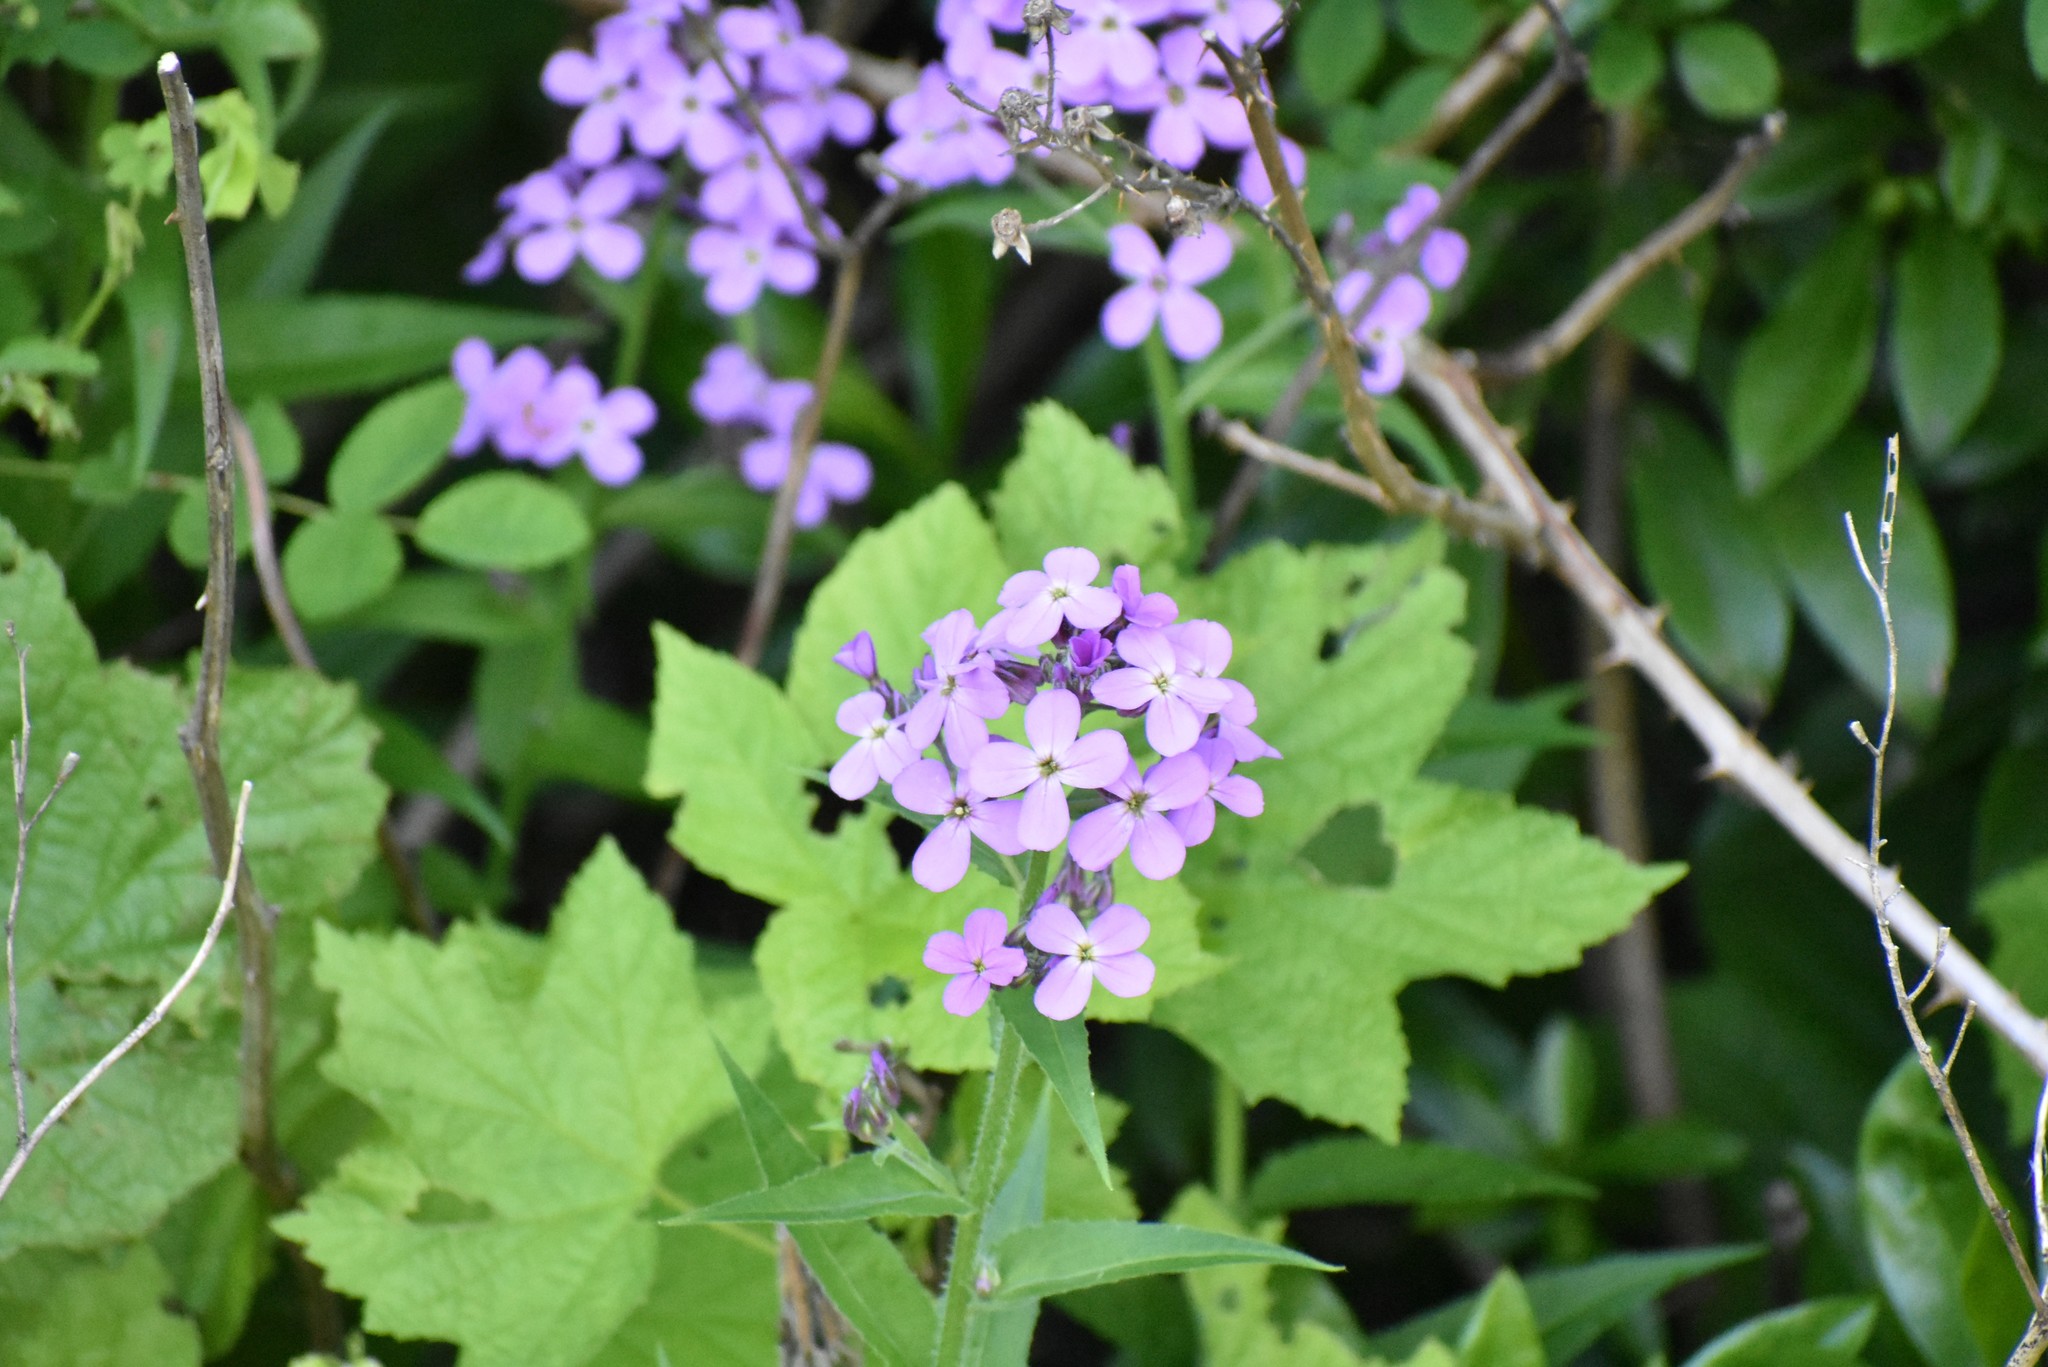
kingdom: Plantae
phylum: Tracheophyta
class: Magnoliopsida
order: Brassicales
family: Brassicaceae
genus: Hesperis
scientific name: Hesperis matronalis
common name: Dame's-violet
